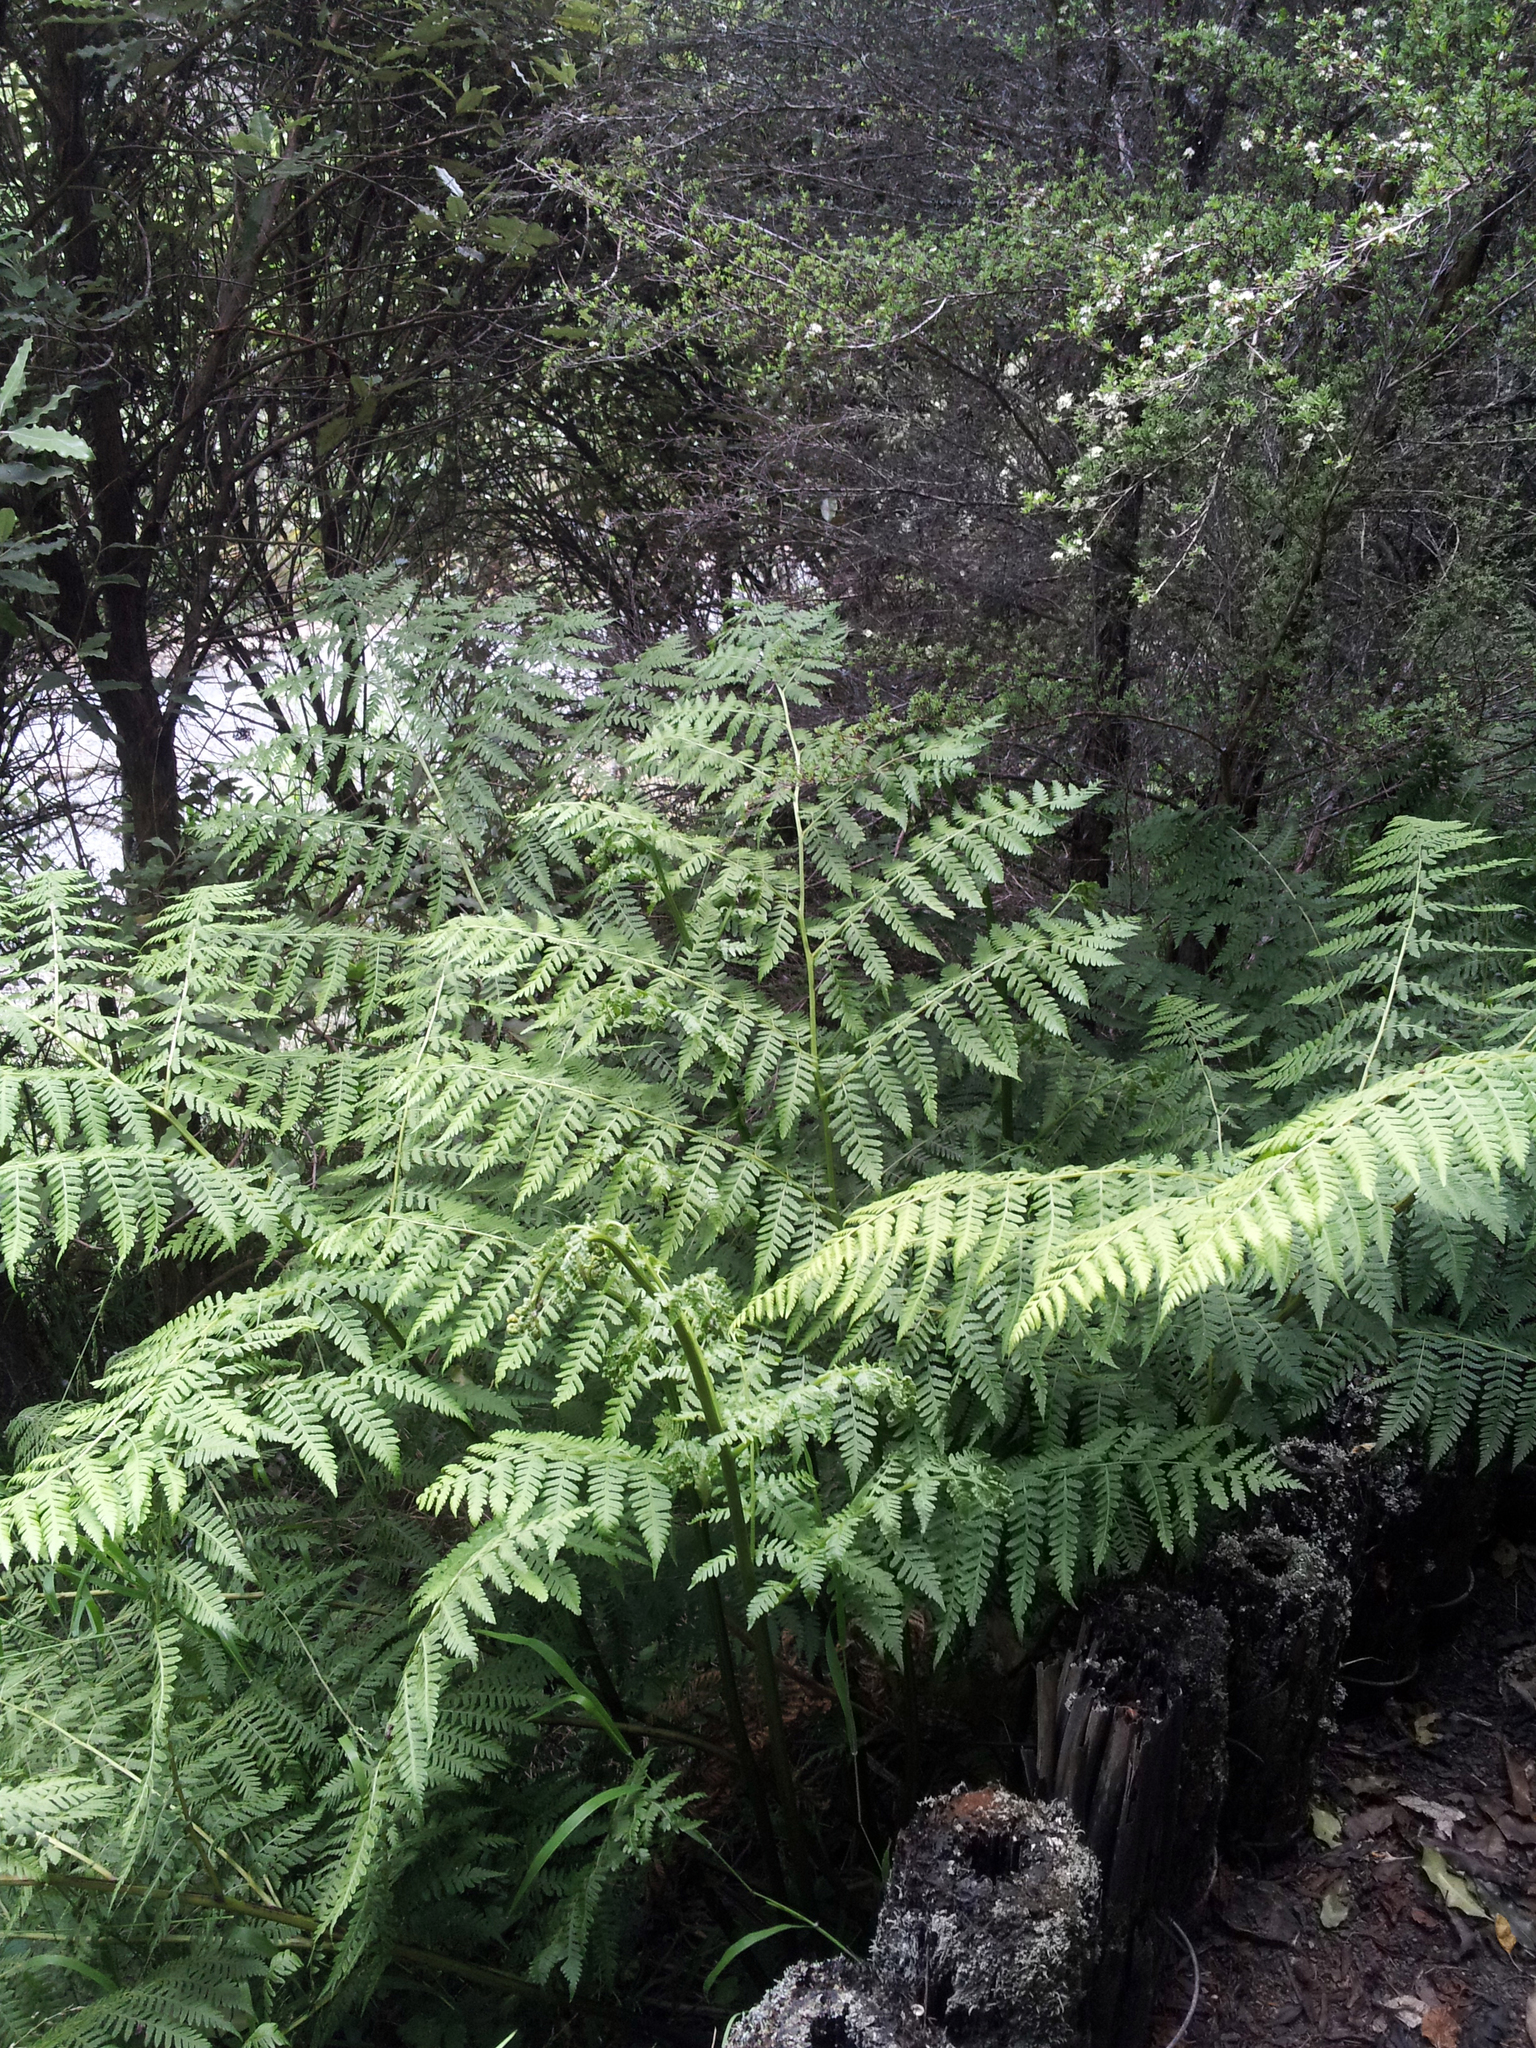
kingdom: Plantae
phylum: Tracheophyta
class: Polypodiopsida
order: Polypodiales
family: Athyriaceae
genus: Diplazium
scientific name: Diplazium australe
